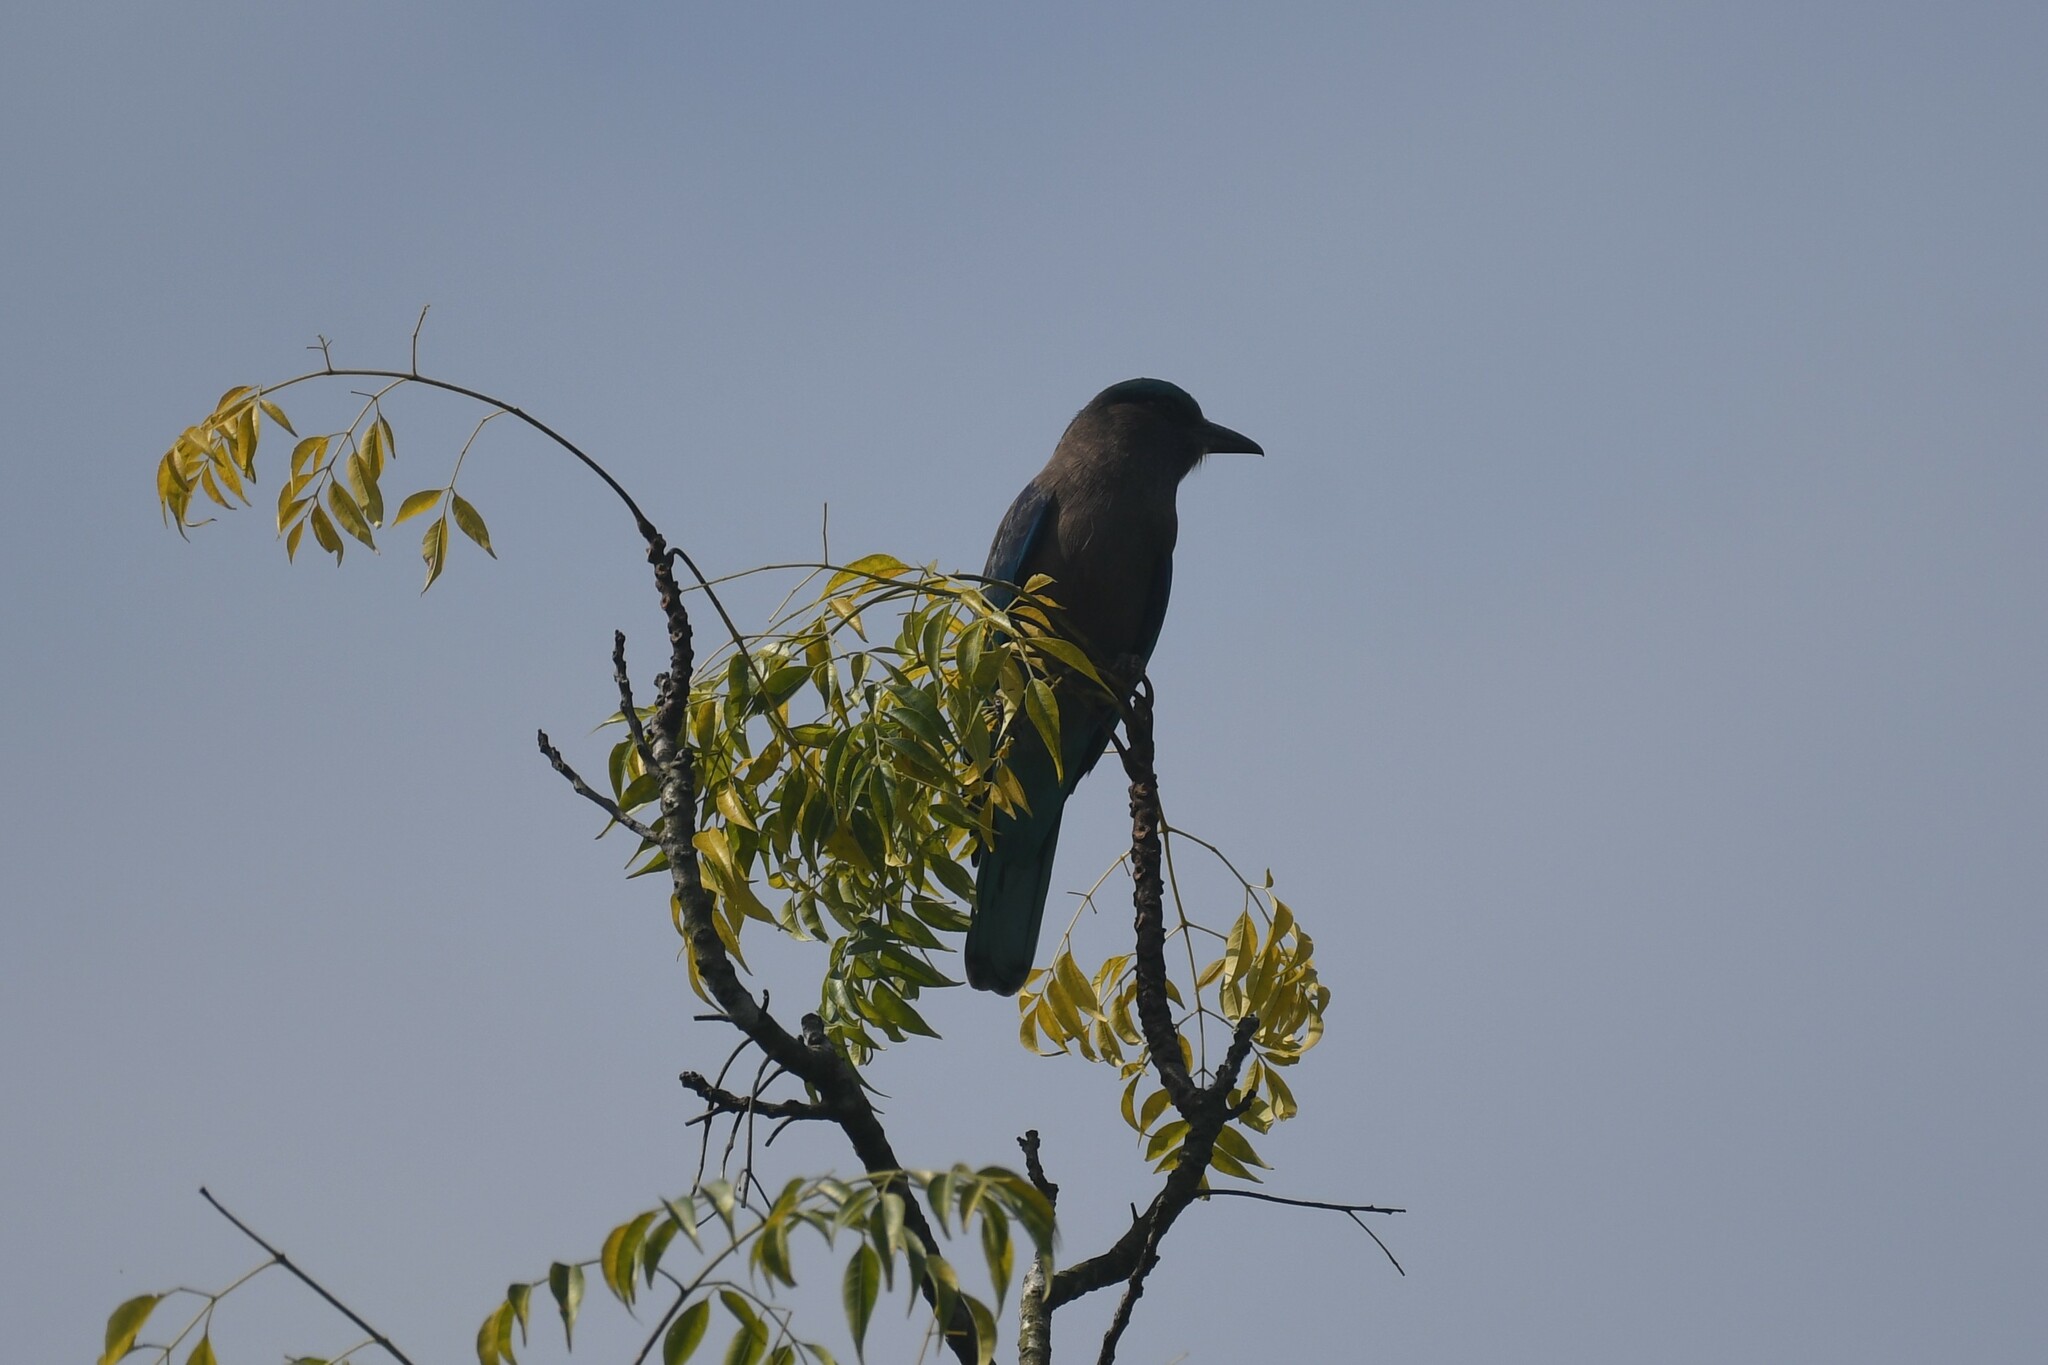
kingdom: Animalia
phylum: Chordata
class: Aves
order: Coraciiformes
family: Coraciidae
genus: Coracias
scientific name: Coracias affinis
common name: Indochinese roller
